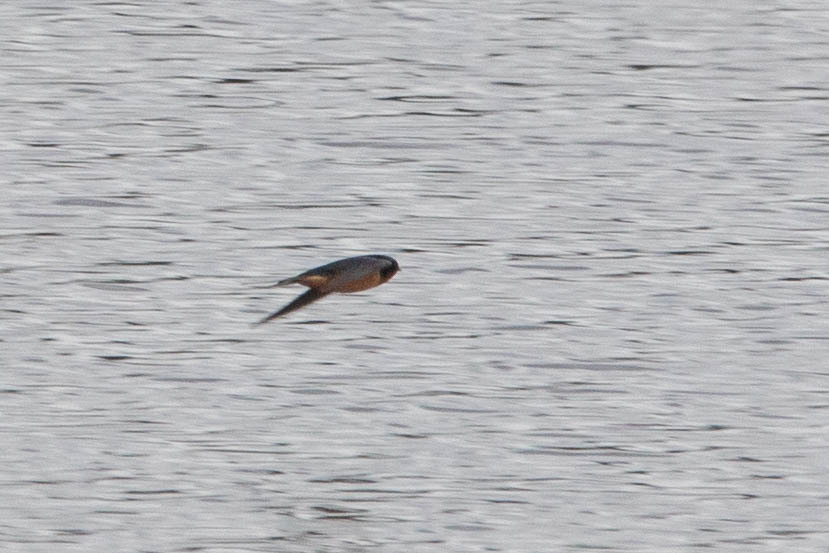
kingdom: Animalia
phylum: Chordata
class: Aves
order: Passeriformes
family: Hirundinidae
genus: Hirundo
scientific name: Hirundo rustica
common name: Barn swallow
